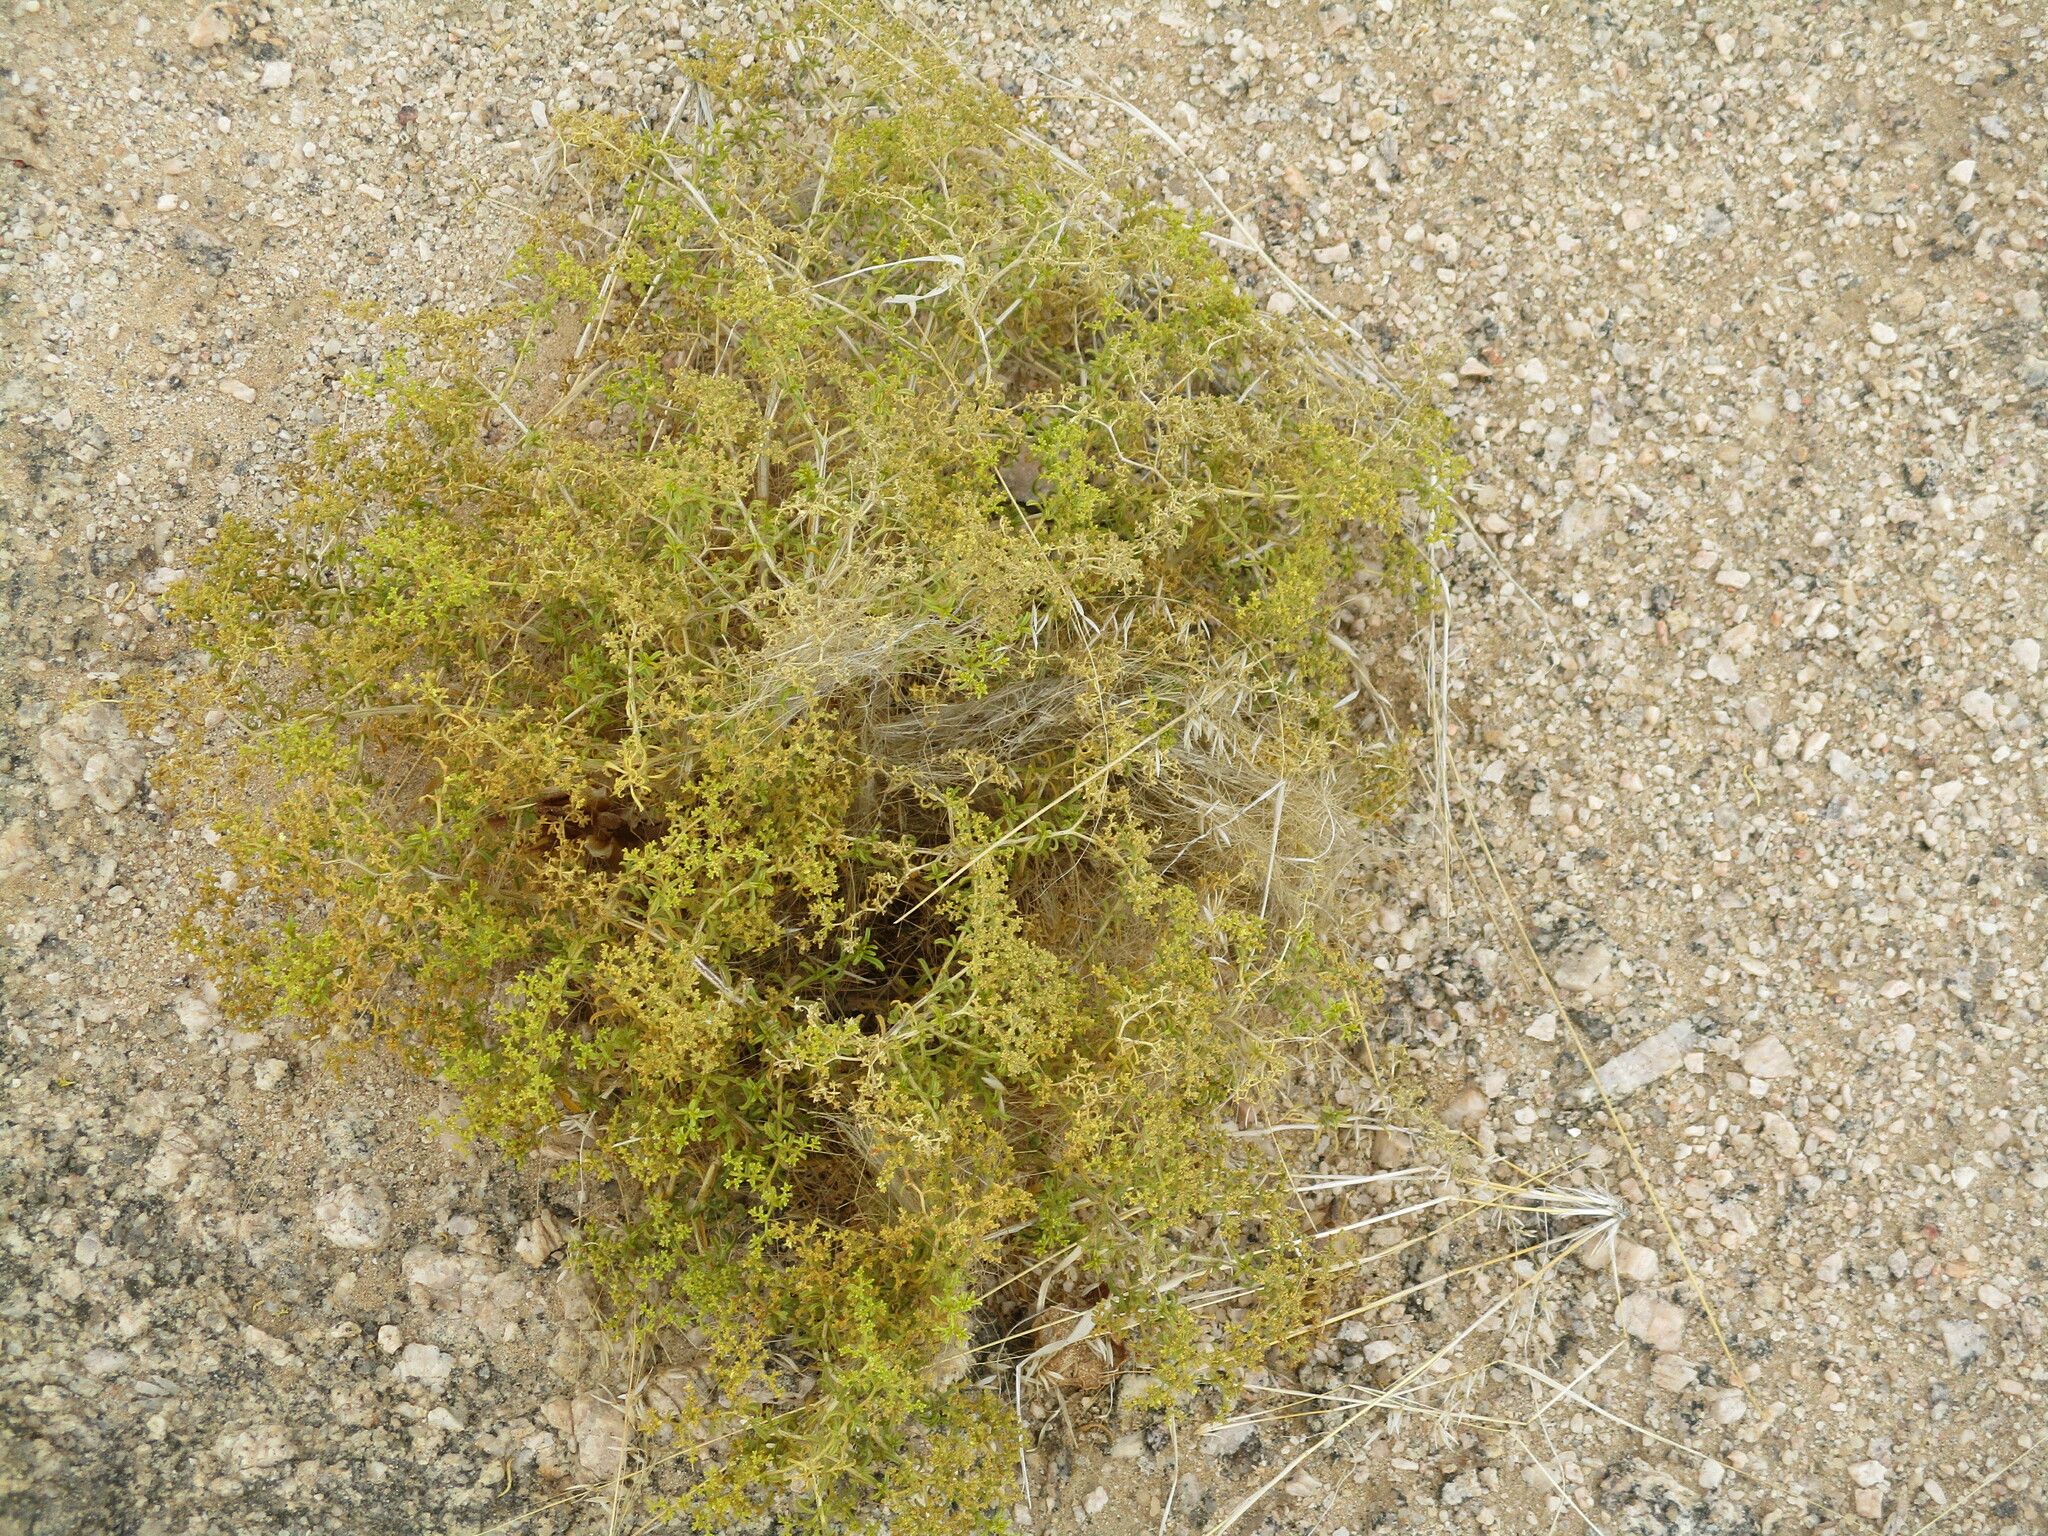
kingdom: Plantae
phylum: Tracheophyta
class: Magnoliopsida
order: Caryophyllales
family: Aizoaceae
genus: Aizoon
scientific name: Aizoon africanum
